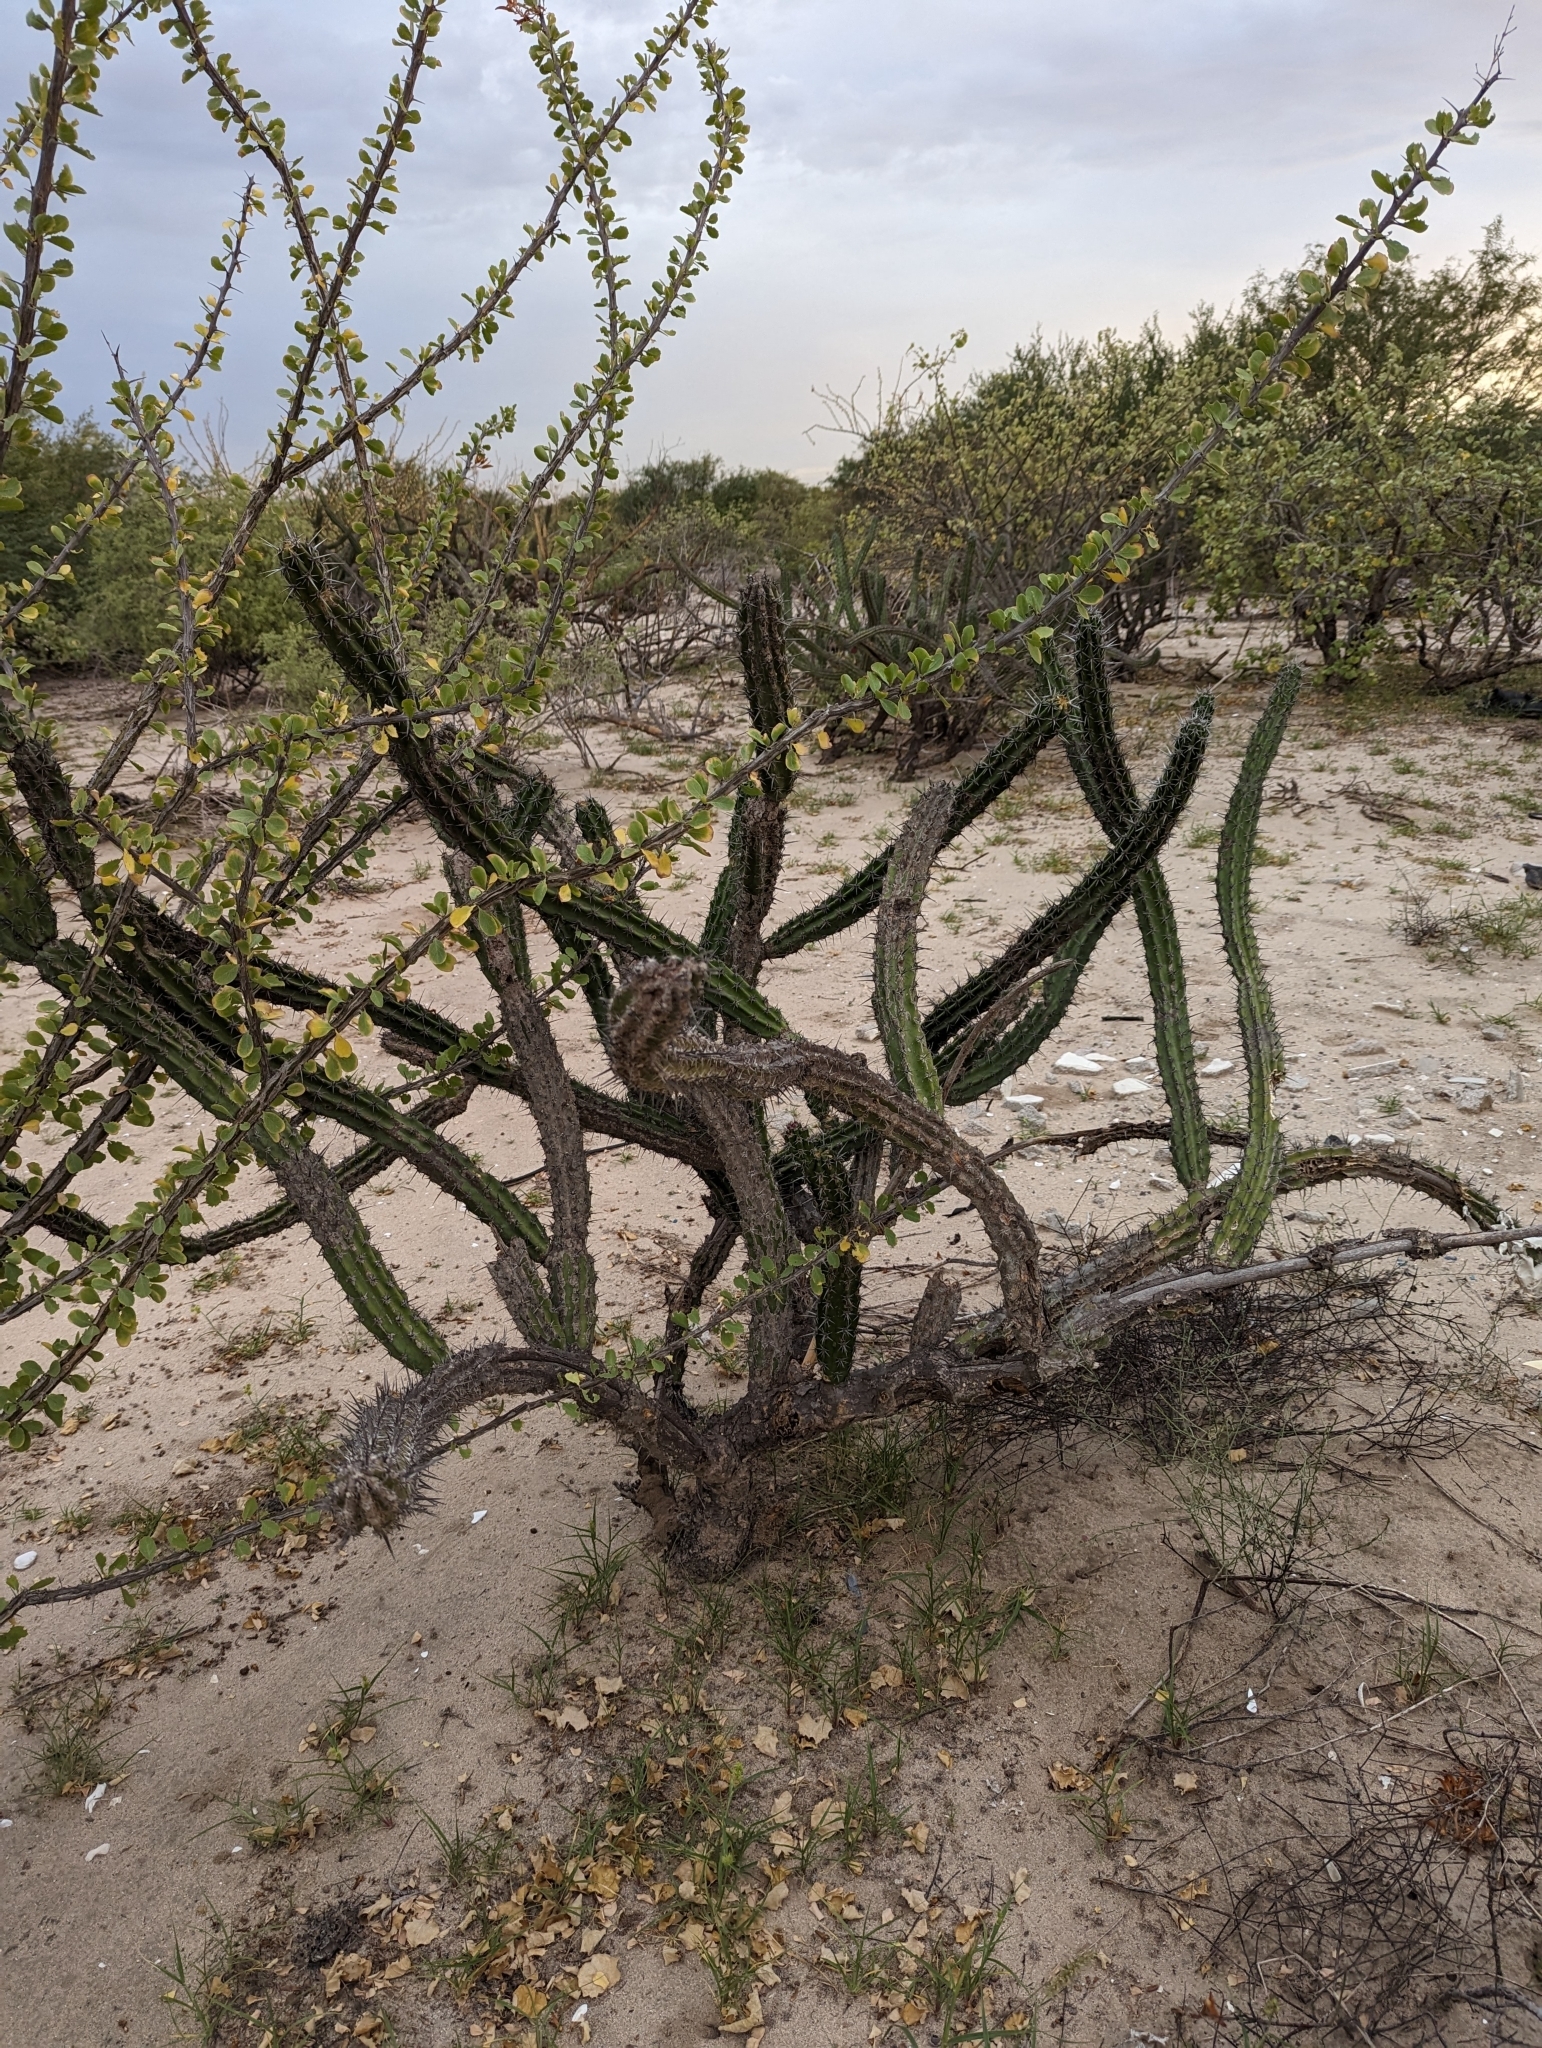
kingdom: Plantae
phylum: Tracheophyta
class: Magnoliopsida
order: Caryophyllales
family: Cactaceae
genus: Stenocereus
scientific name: Stenocereus gummosus
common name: Dagger cactus
